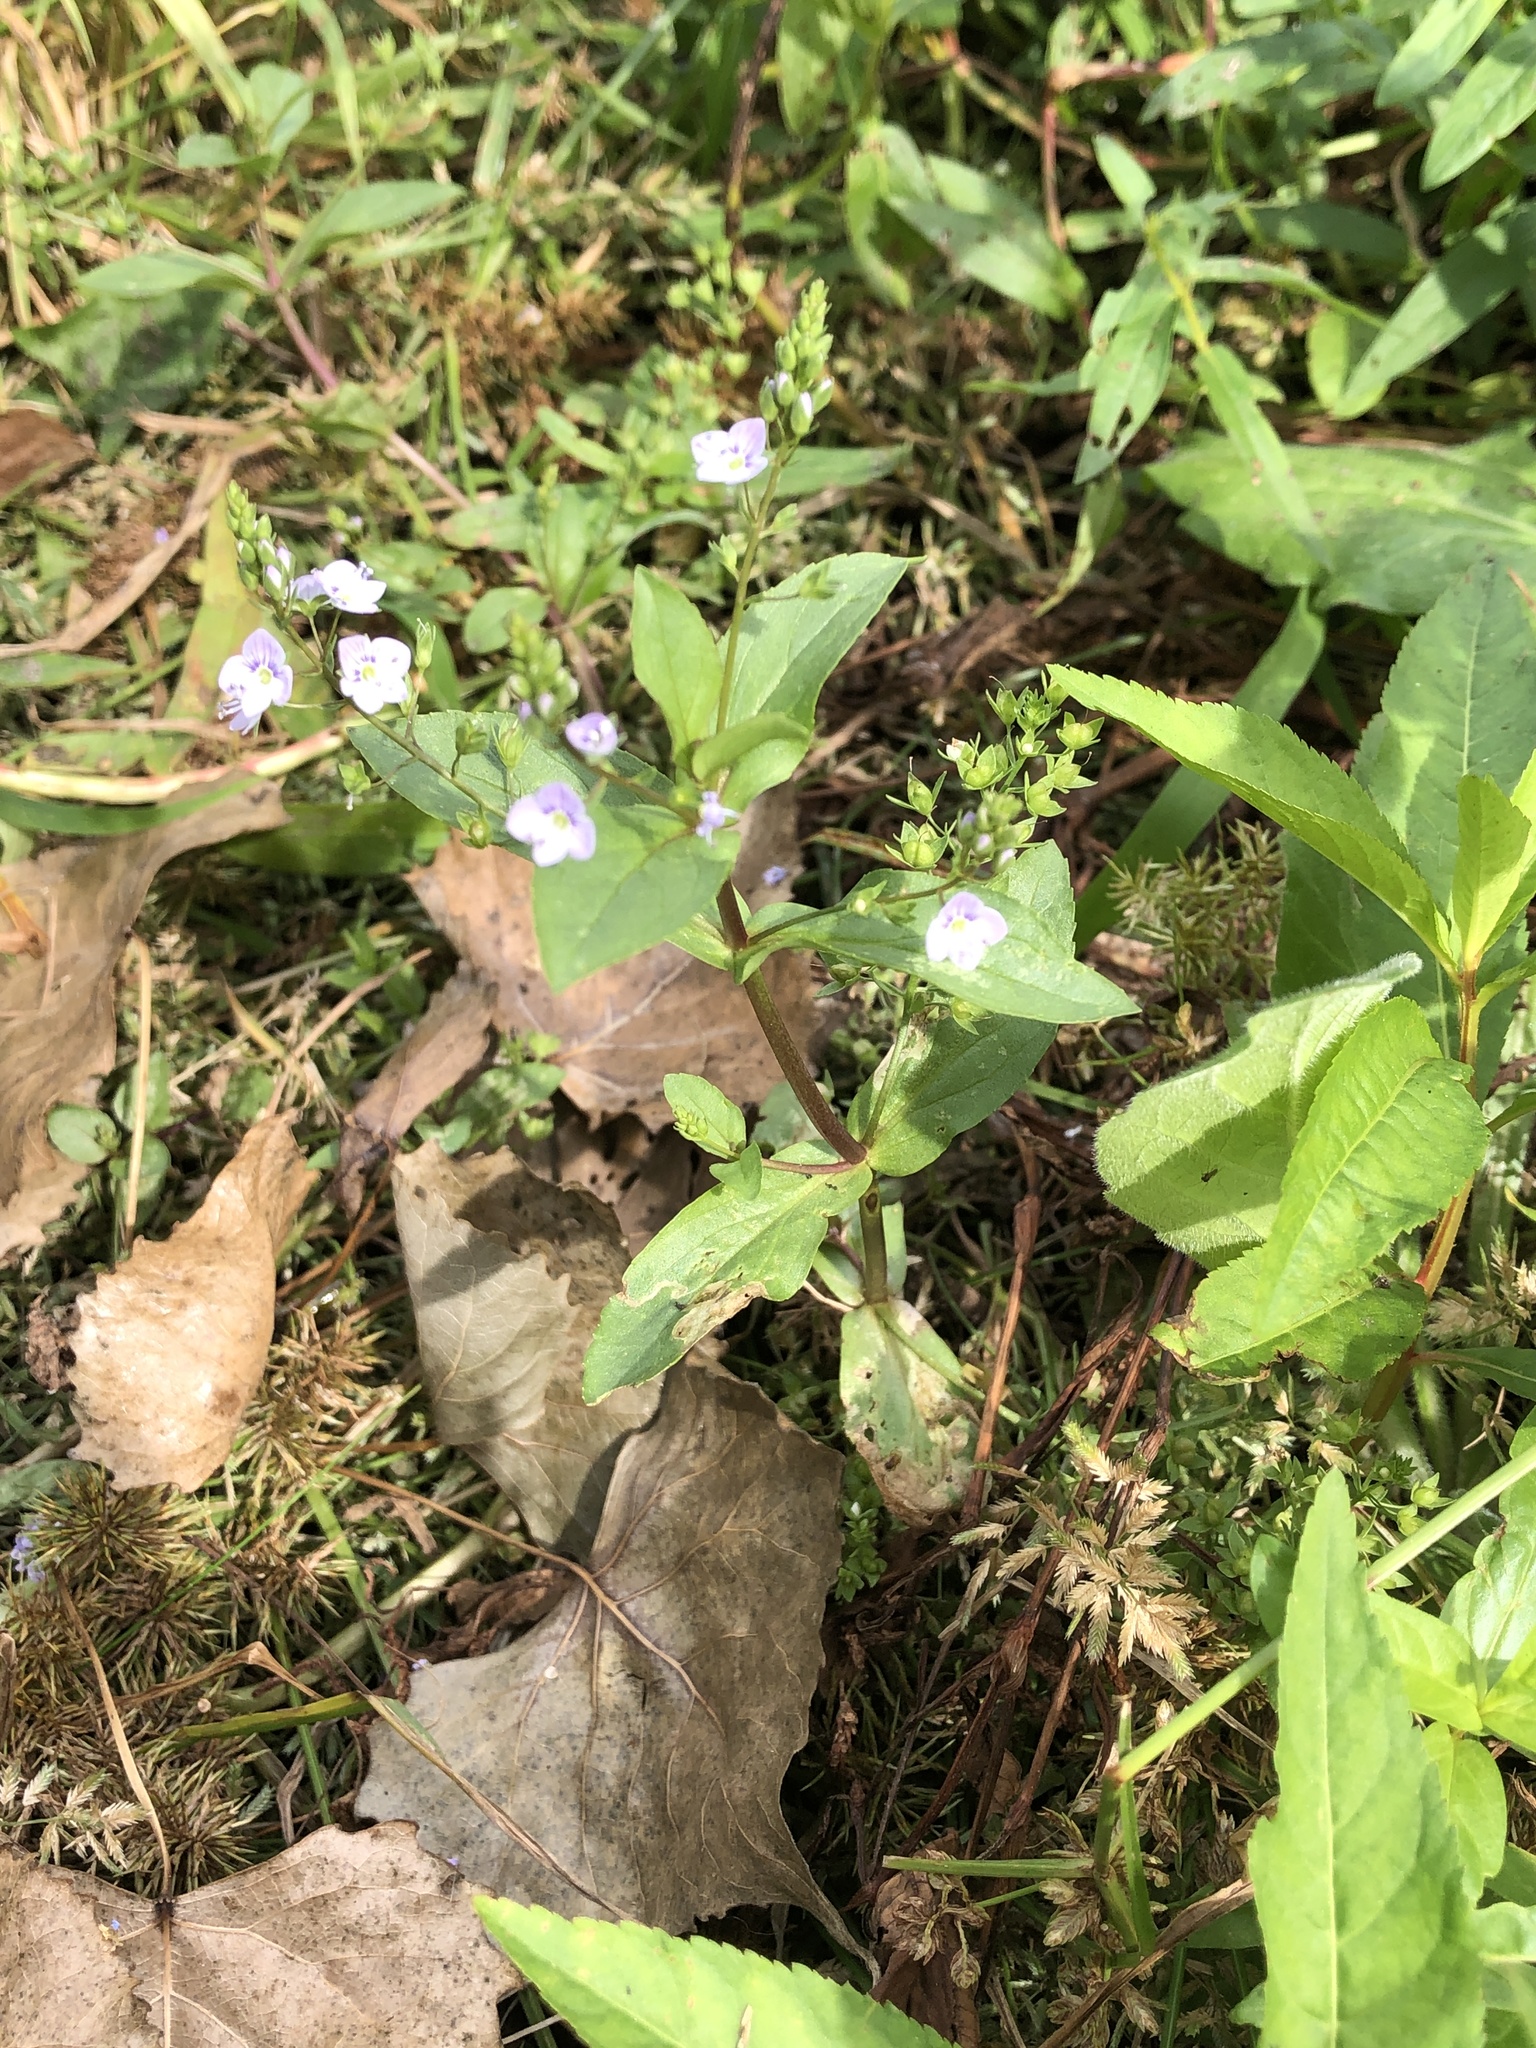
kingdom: Plantae
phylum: Tracheophyta
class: Magnoliopsida
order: Lamiales
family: Plantaginaceae
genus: Veronica
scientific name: Veronica anagallis-aquatica
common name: Water speedwell
